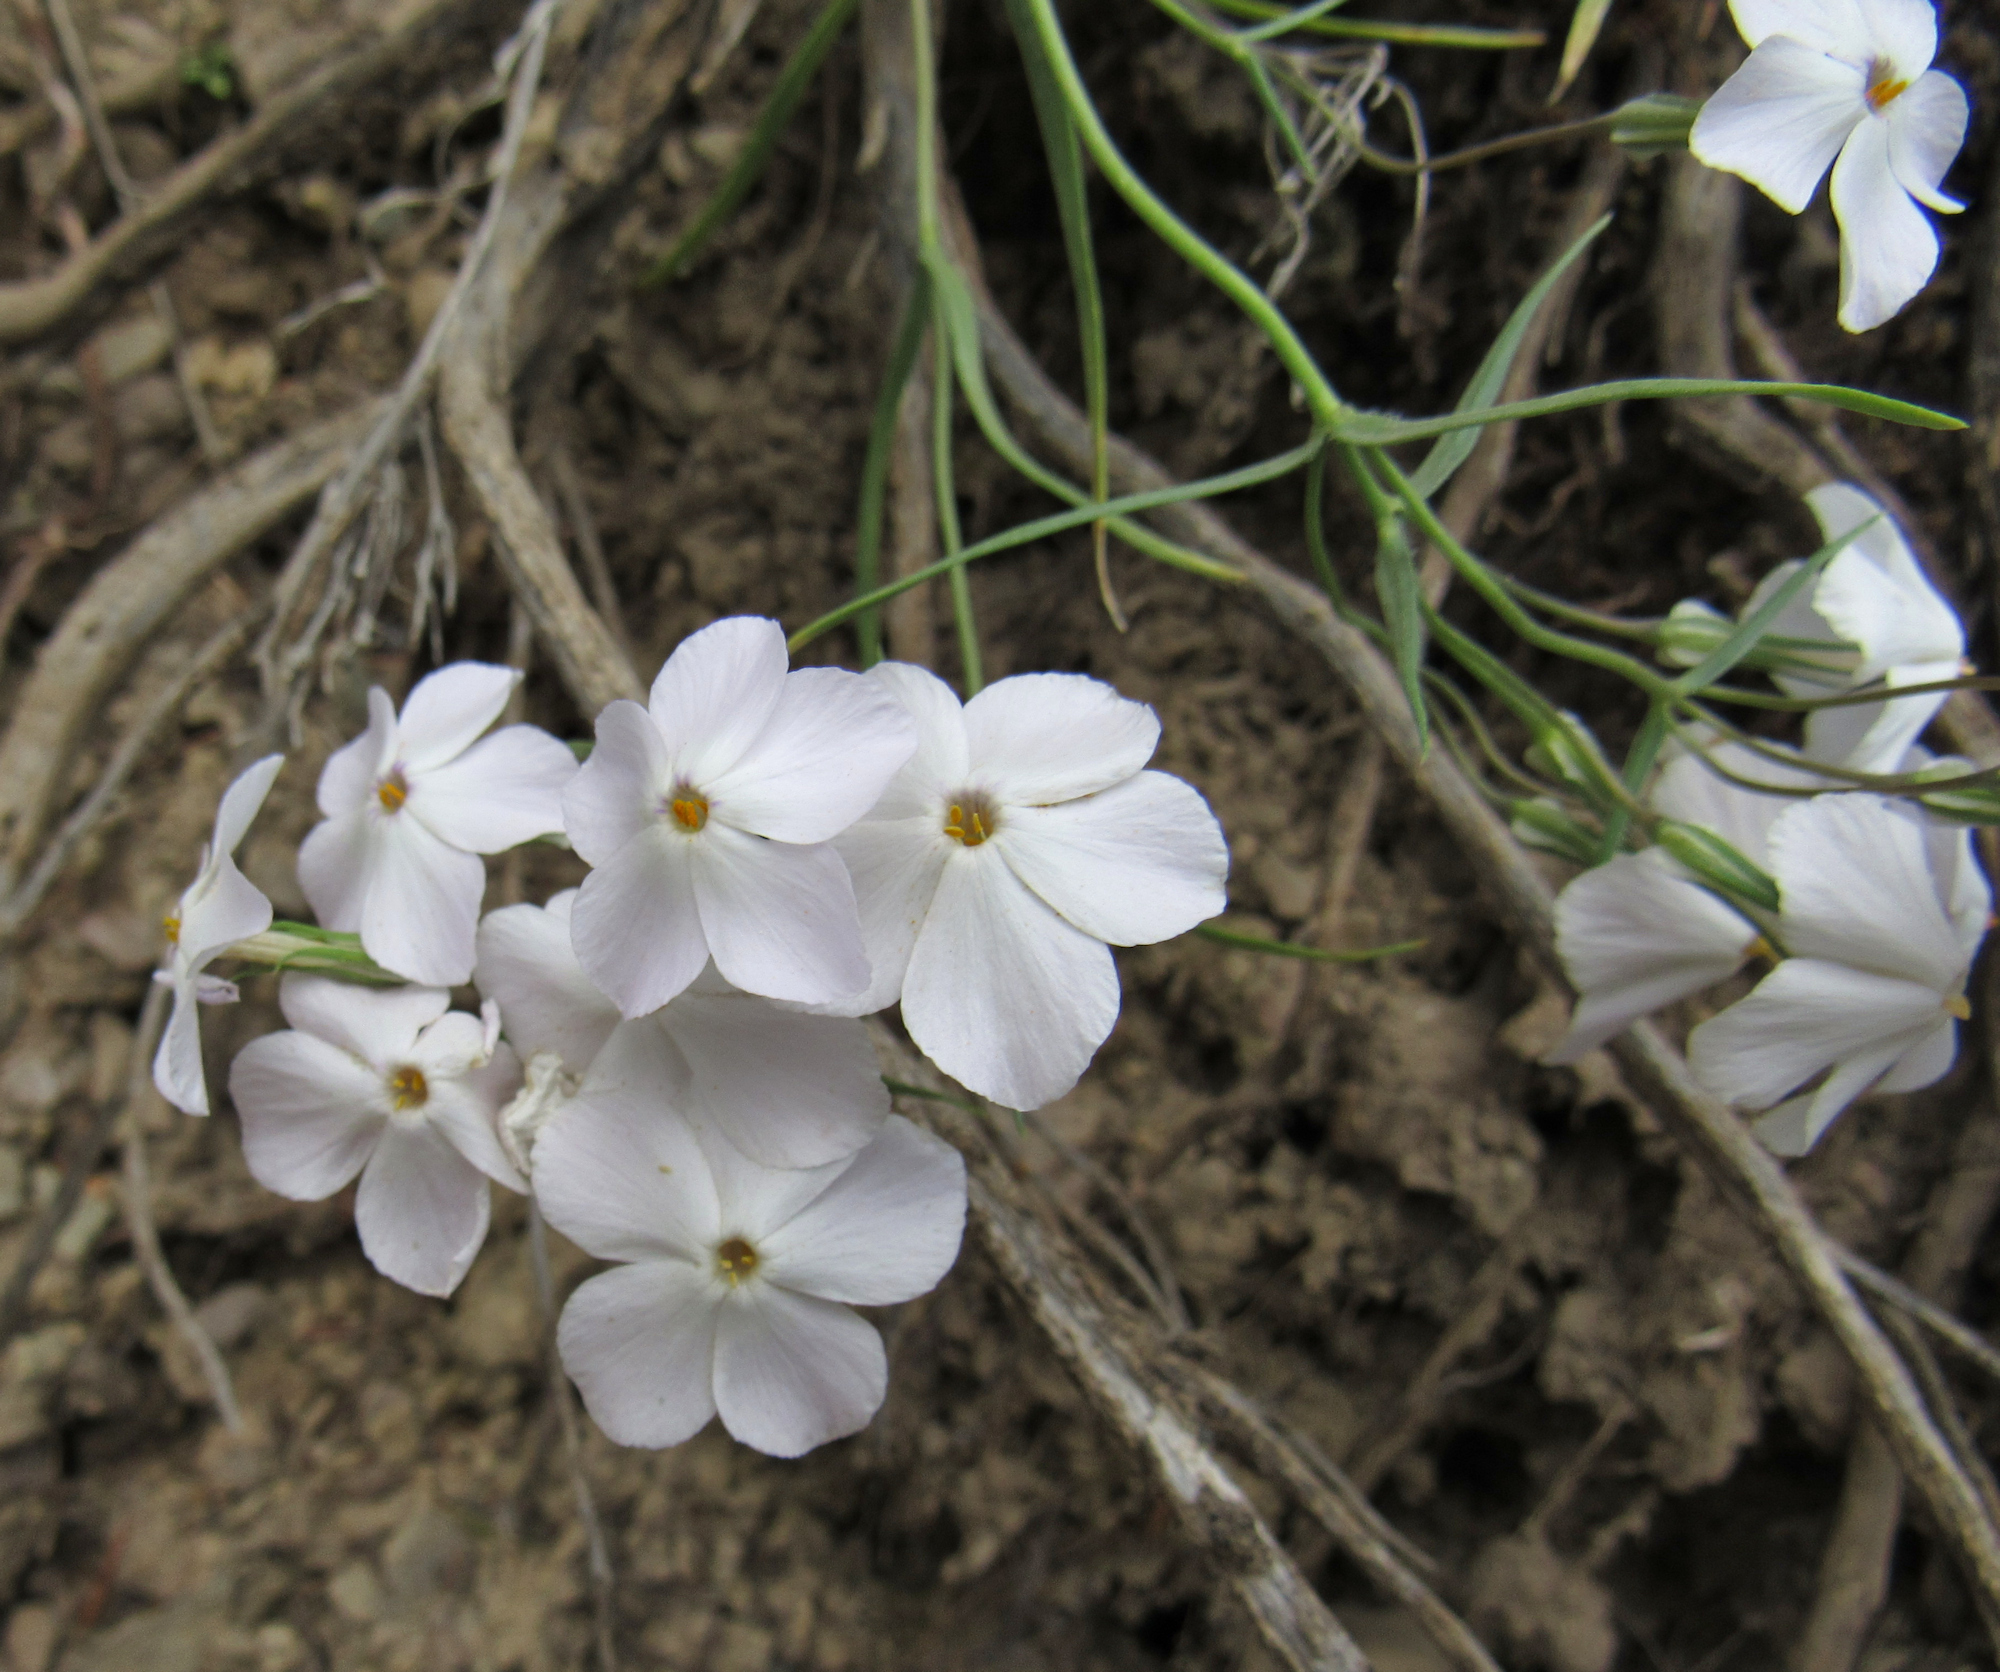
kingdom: Plantae
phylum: Tracheophyta
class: Magnoliopsida
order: Ericales
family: Polemoniaceae
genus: Phlox
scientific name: Phlox longifolia
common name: Longleaf phlox
